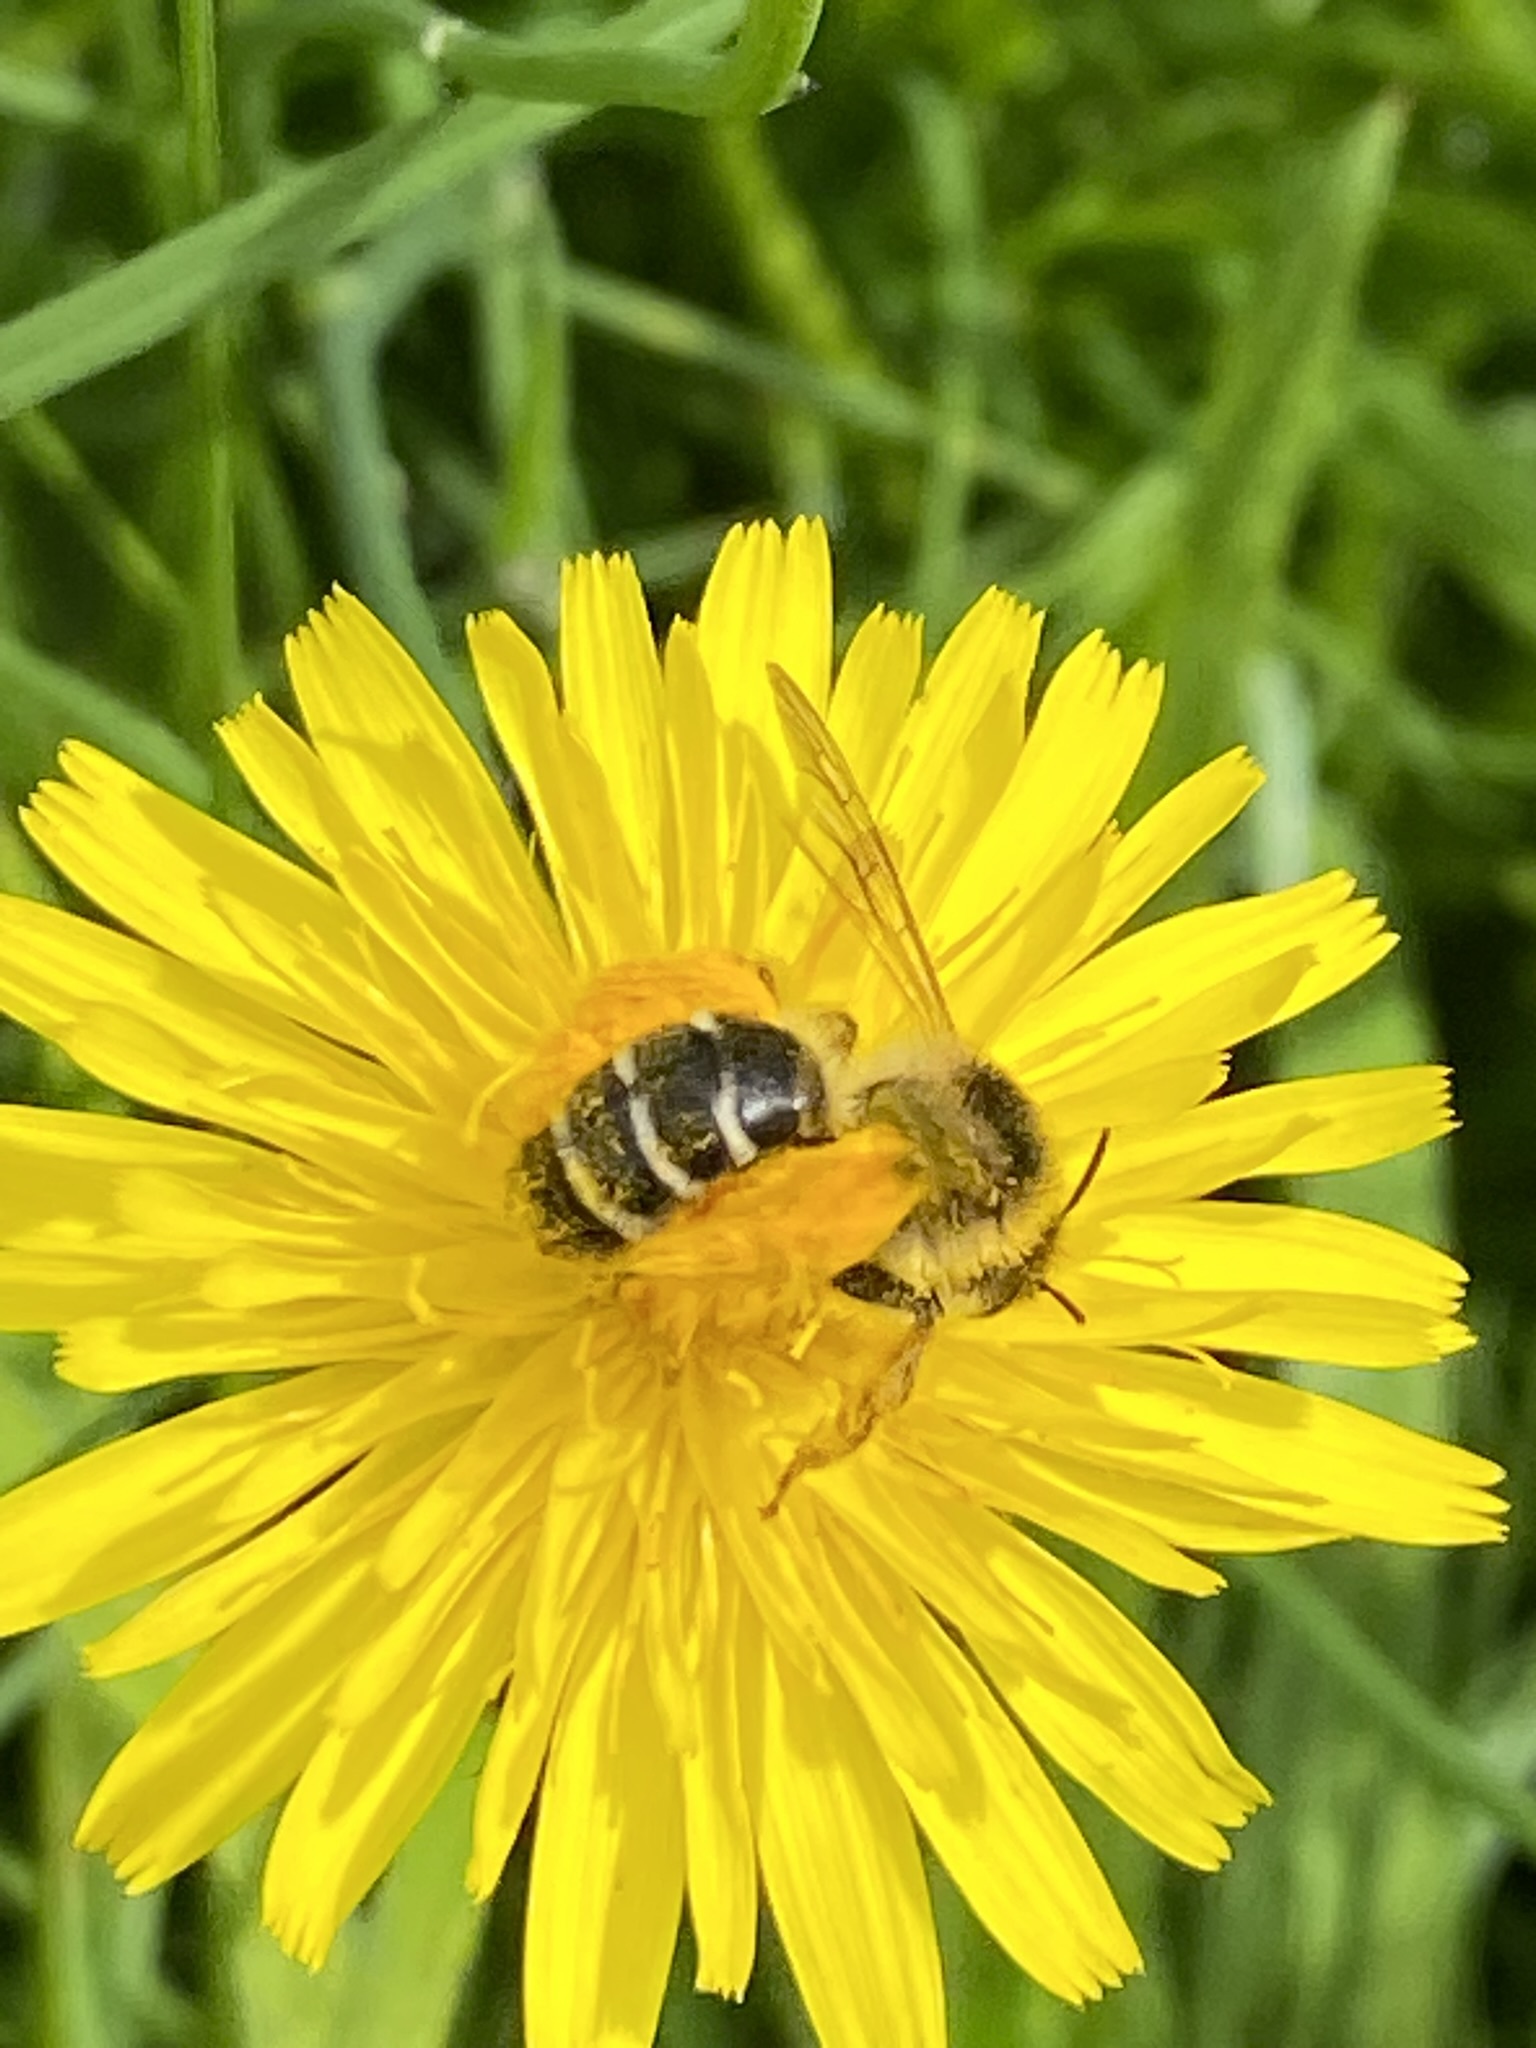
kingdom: Animalia
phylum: Arthropoda
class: Insecta
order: Hymenoptera
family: Melittidae
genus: Dasypoda
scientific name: Dasypoda hirtipes
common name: Pantaloon bee
